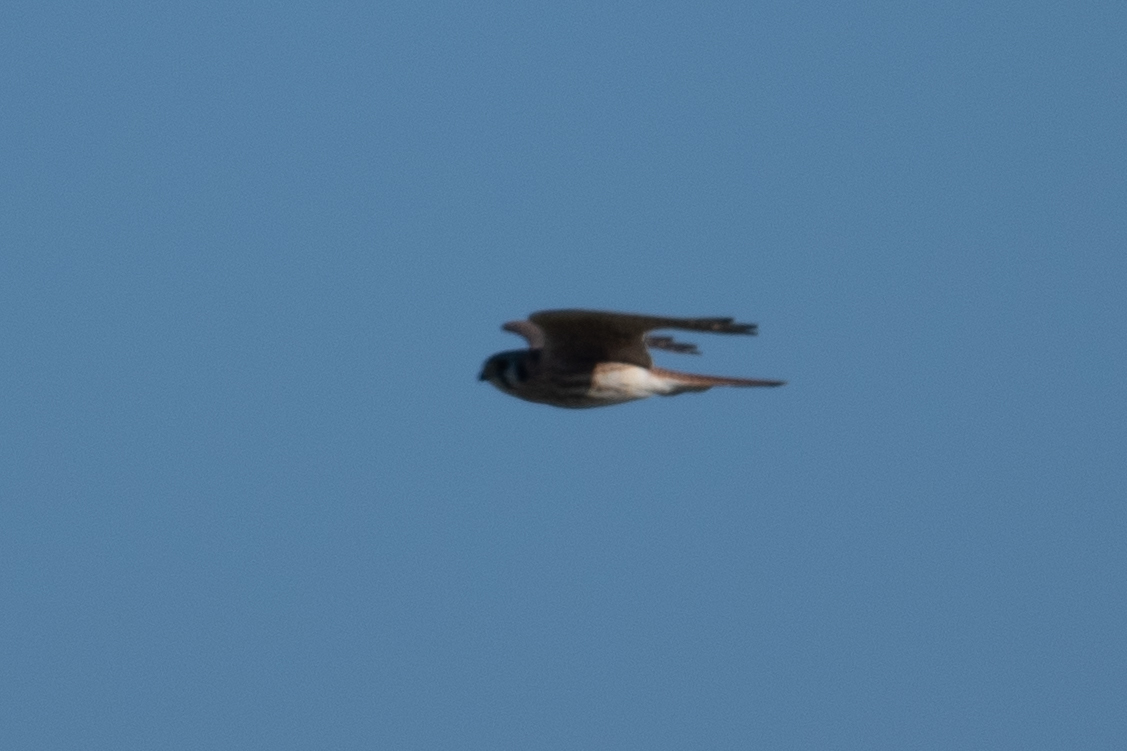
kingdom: Animalia
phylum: Chordata
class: Aves
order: Falconiformes
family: Falconidae
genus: Falco
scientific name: Falco sparverius
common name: American kestrel
